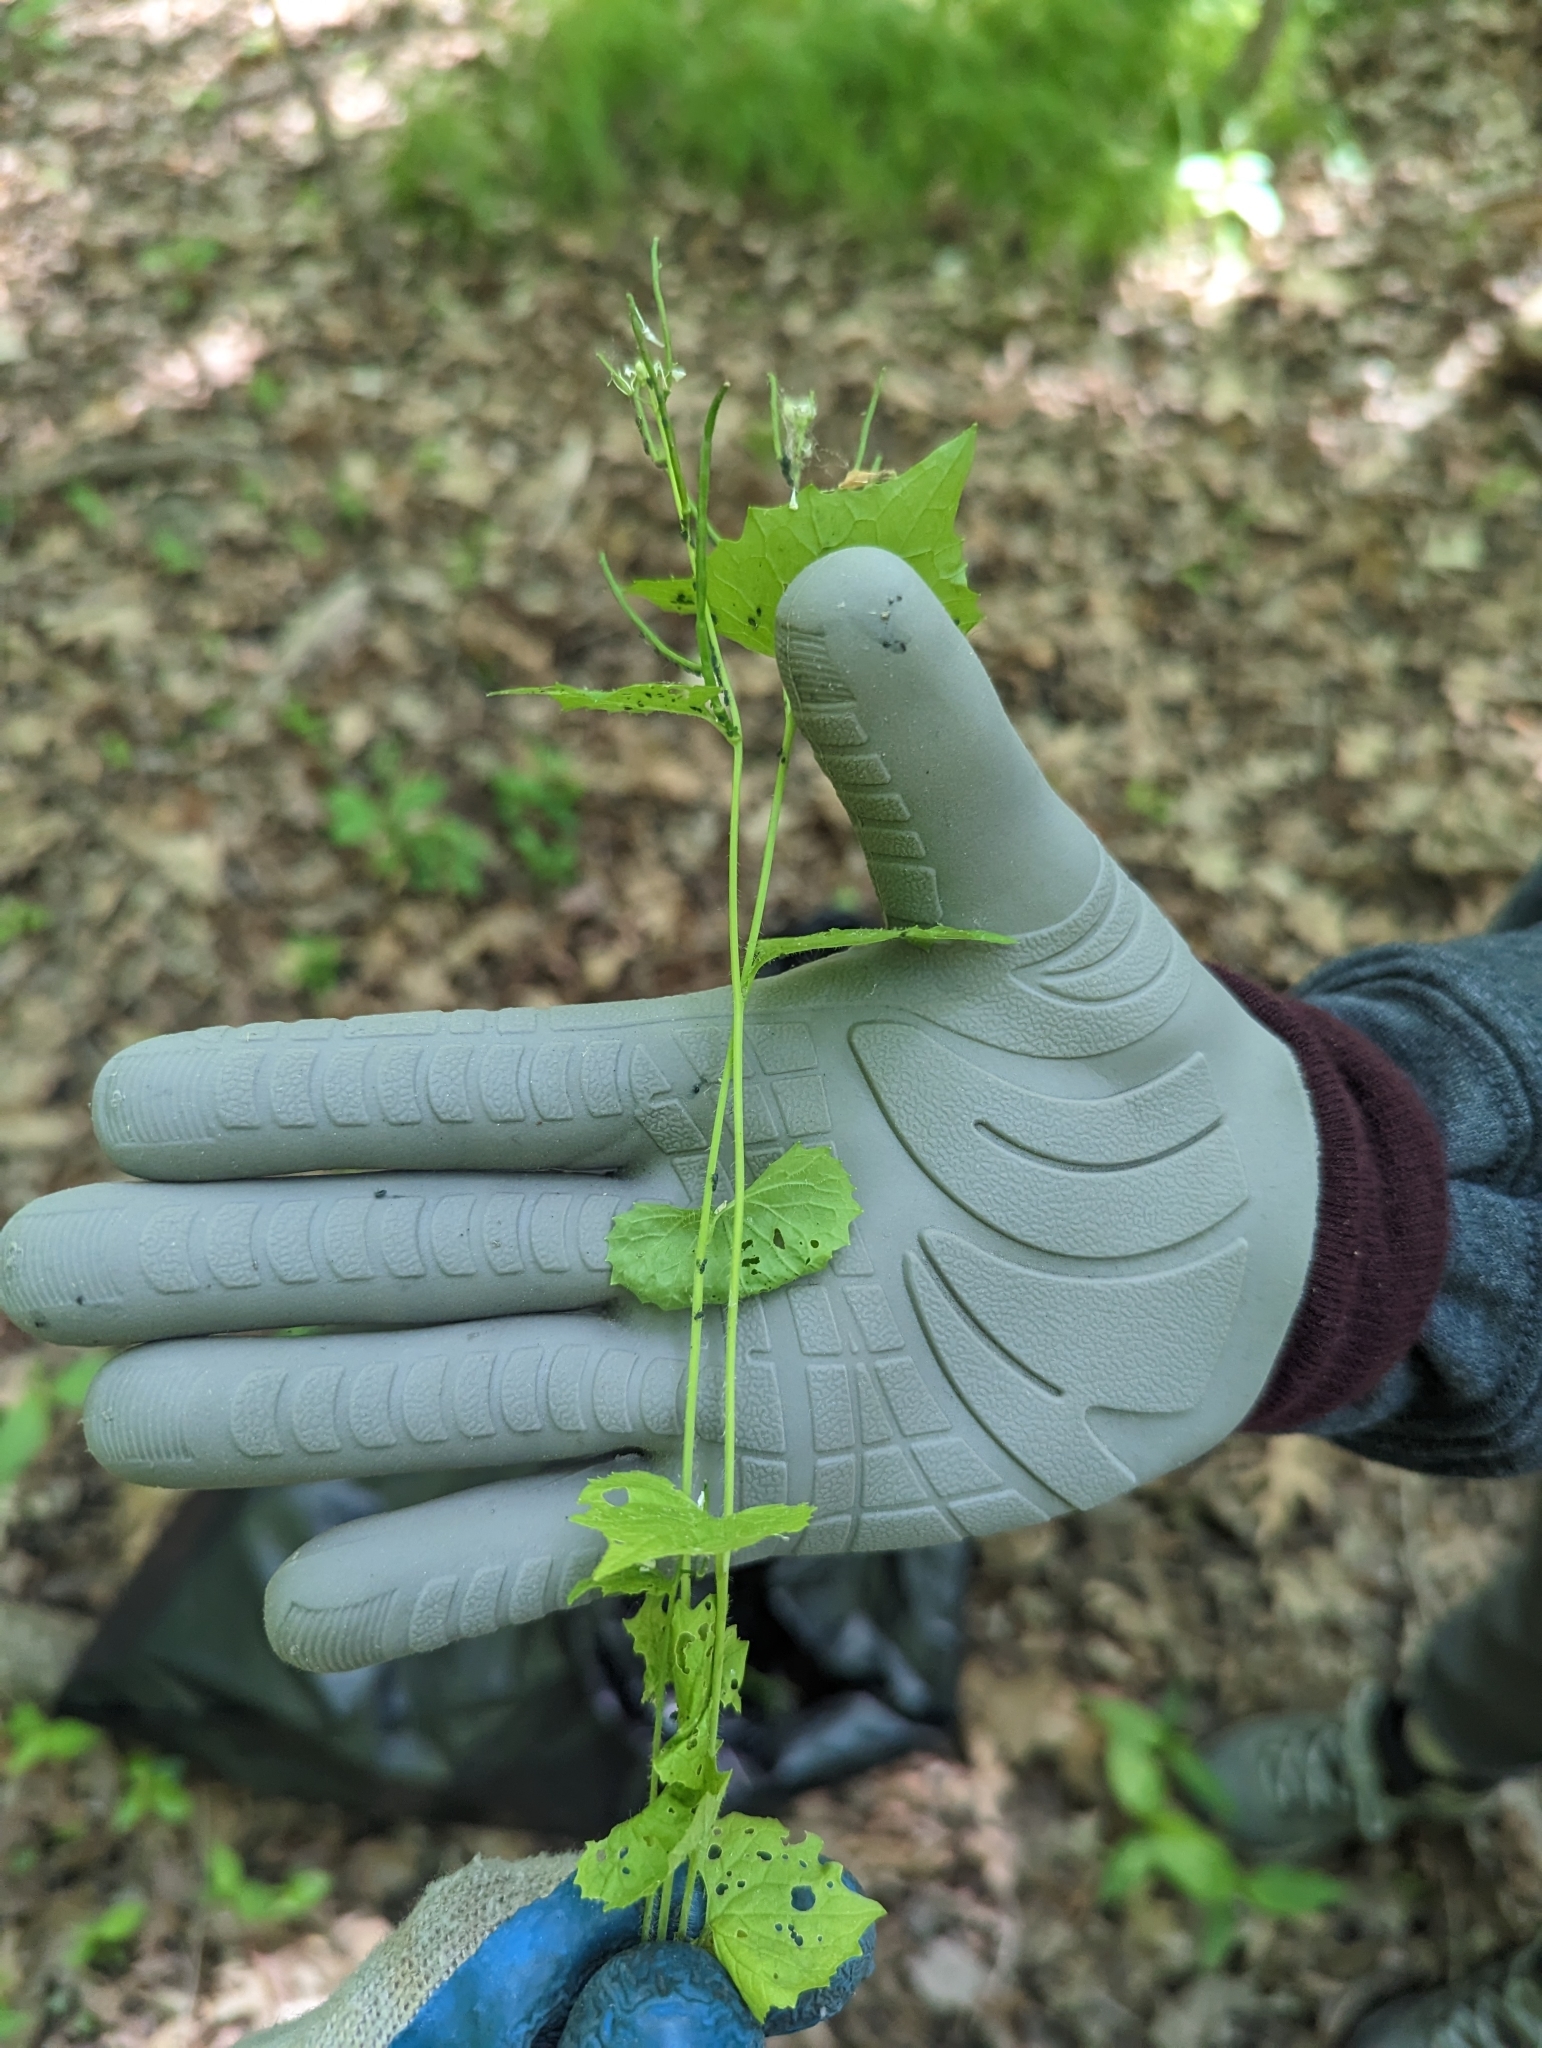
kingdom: Plantae
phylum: Tracheophyta
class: Magnoliopsida
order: Brassicales
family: Brassicaceae
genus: Alliaria
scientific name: Alliaria petiolata
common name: Garlic mustard
